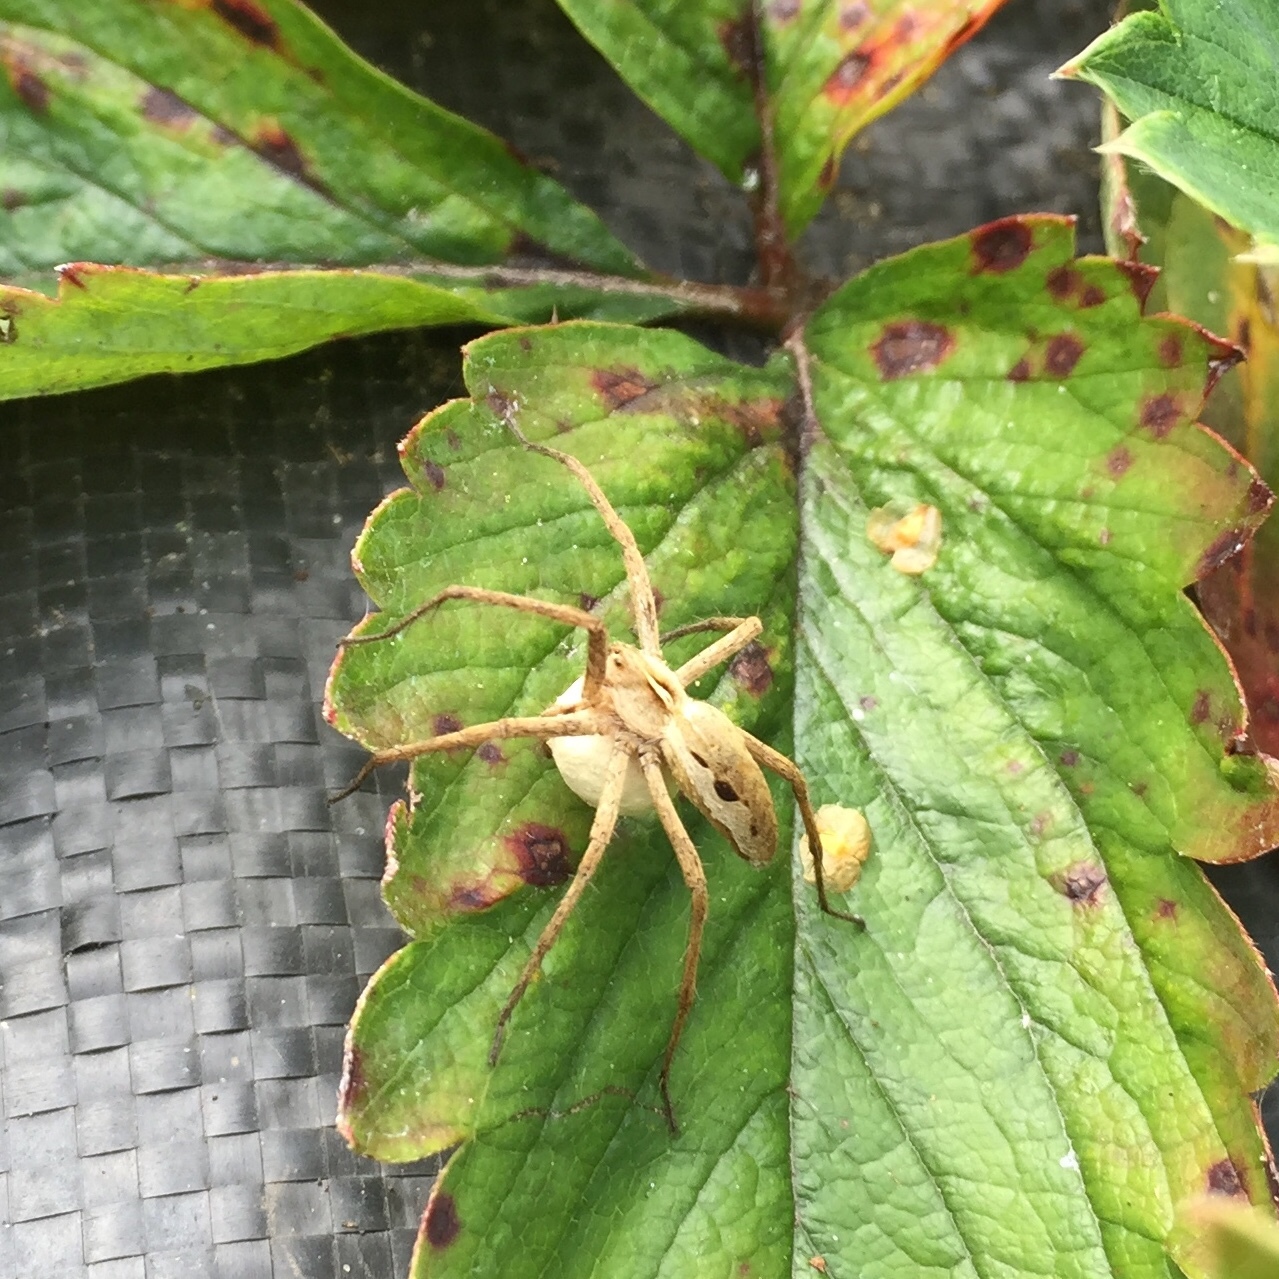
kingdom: Animalia
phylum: Arthropoda
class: Arachnida
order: Araneae
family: Pisauridae
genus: Pisaura
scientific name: Pisaura mirabilis
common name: Tent spider
